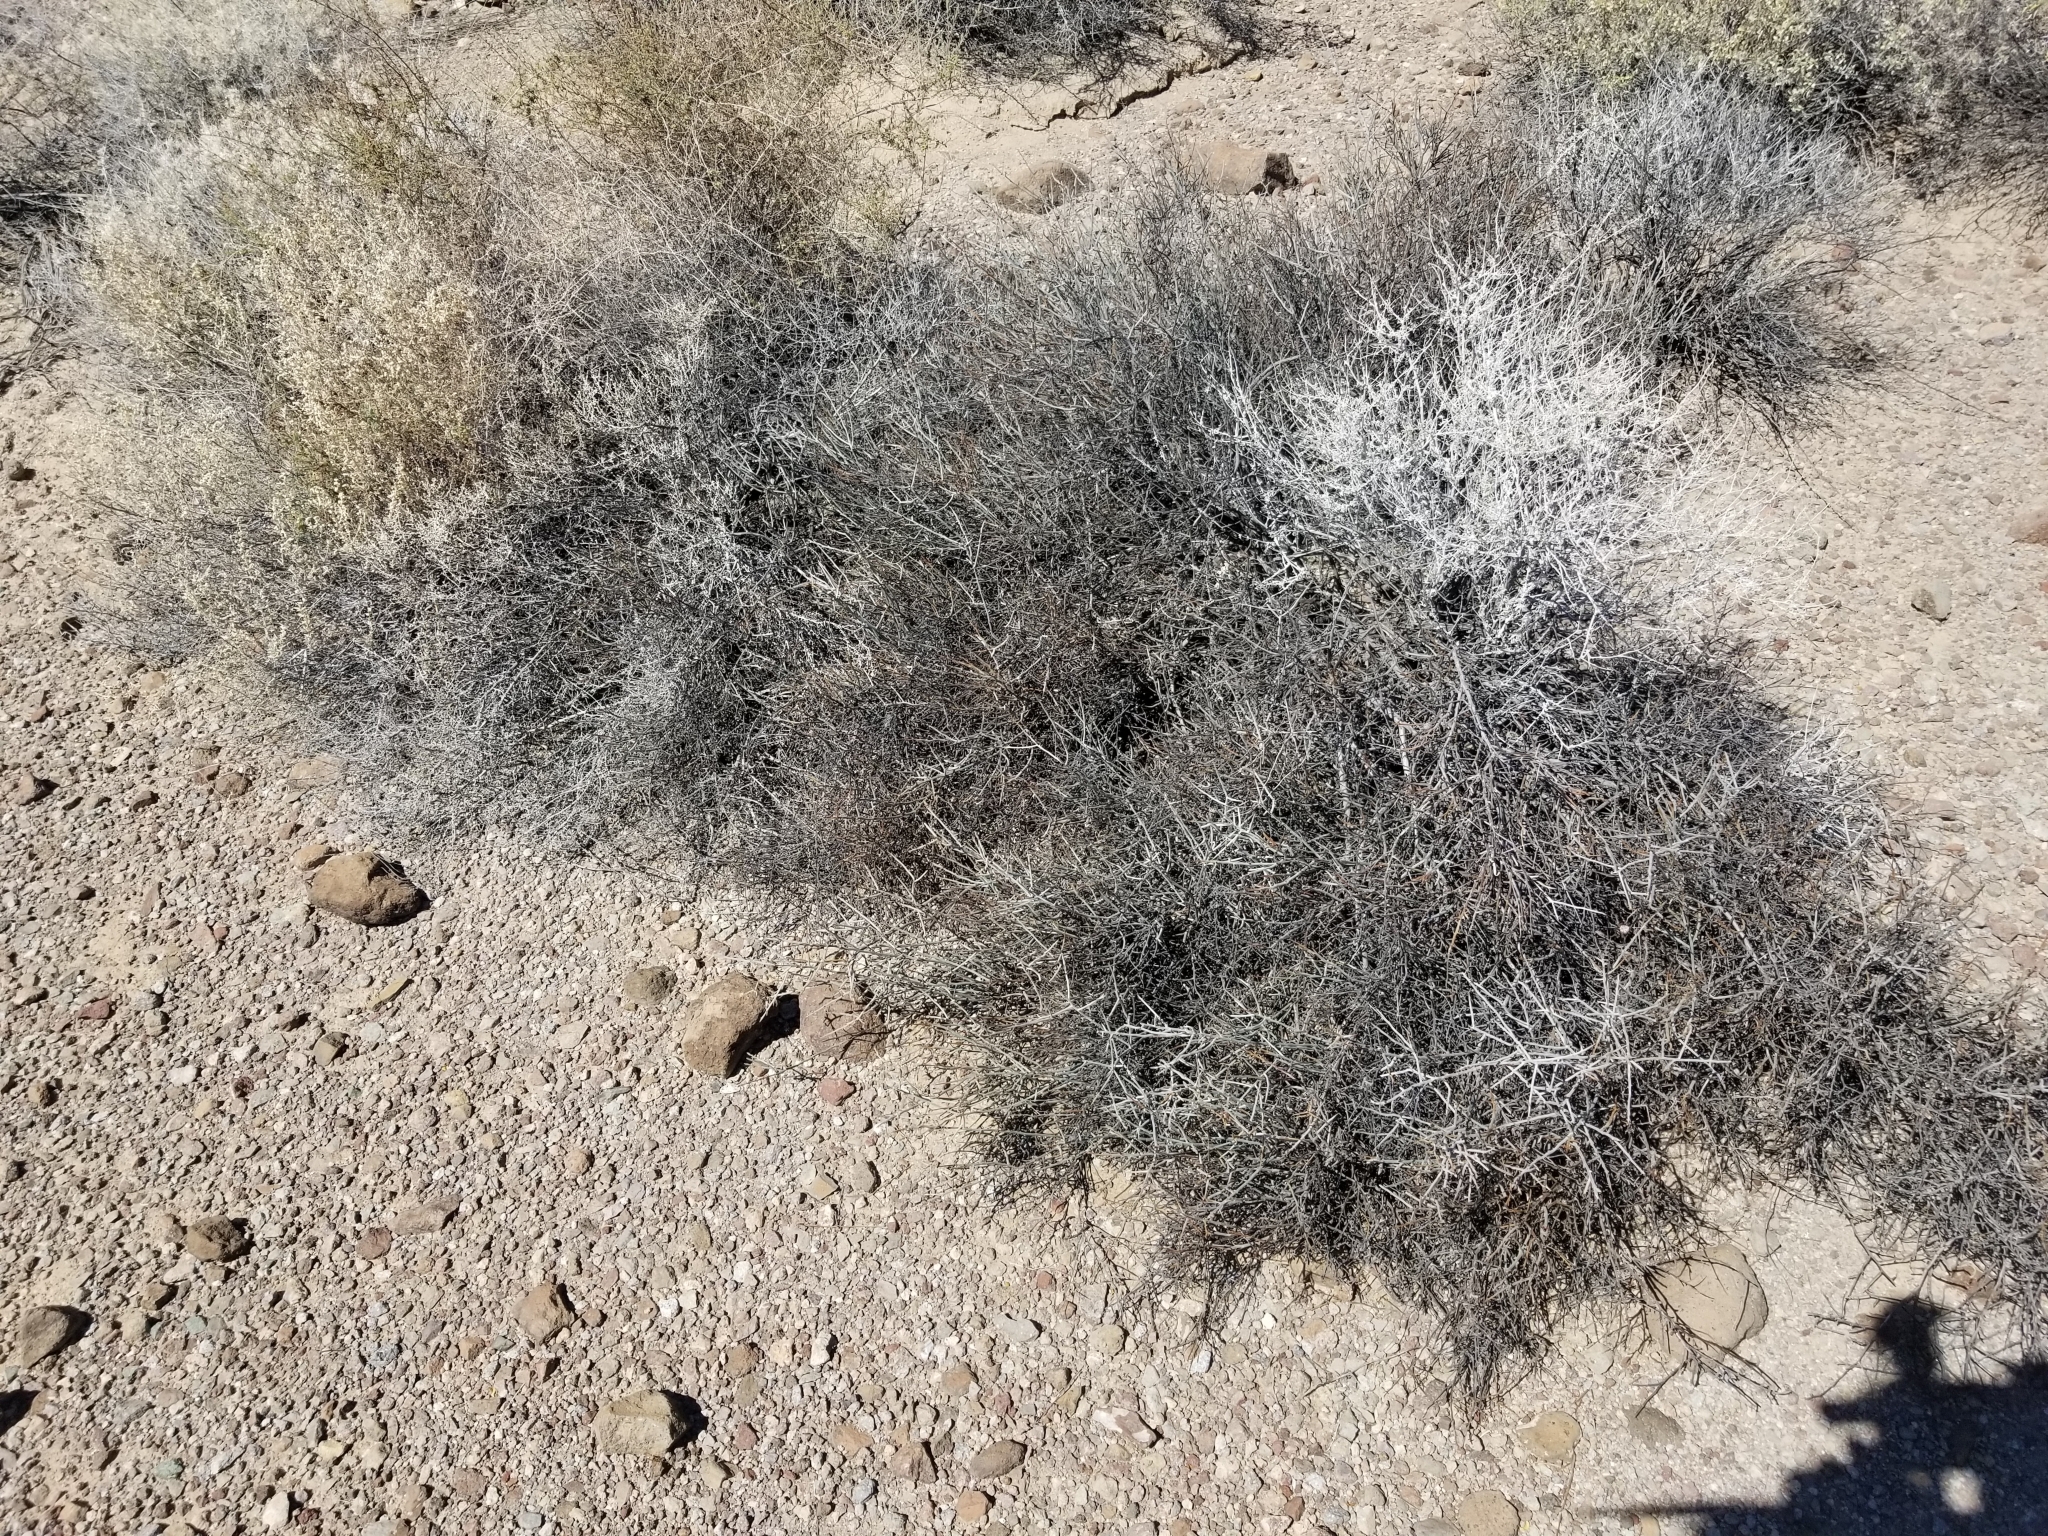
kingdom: Plantae
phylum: Tracheophyta
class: Magnoliopsida
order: Zygophyllales
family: Krameriaceae
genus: Krameria
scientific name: Krameria bicolor
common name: White ratany
